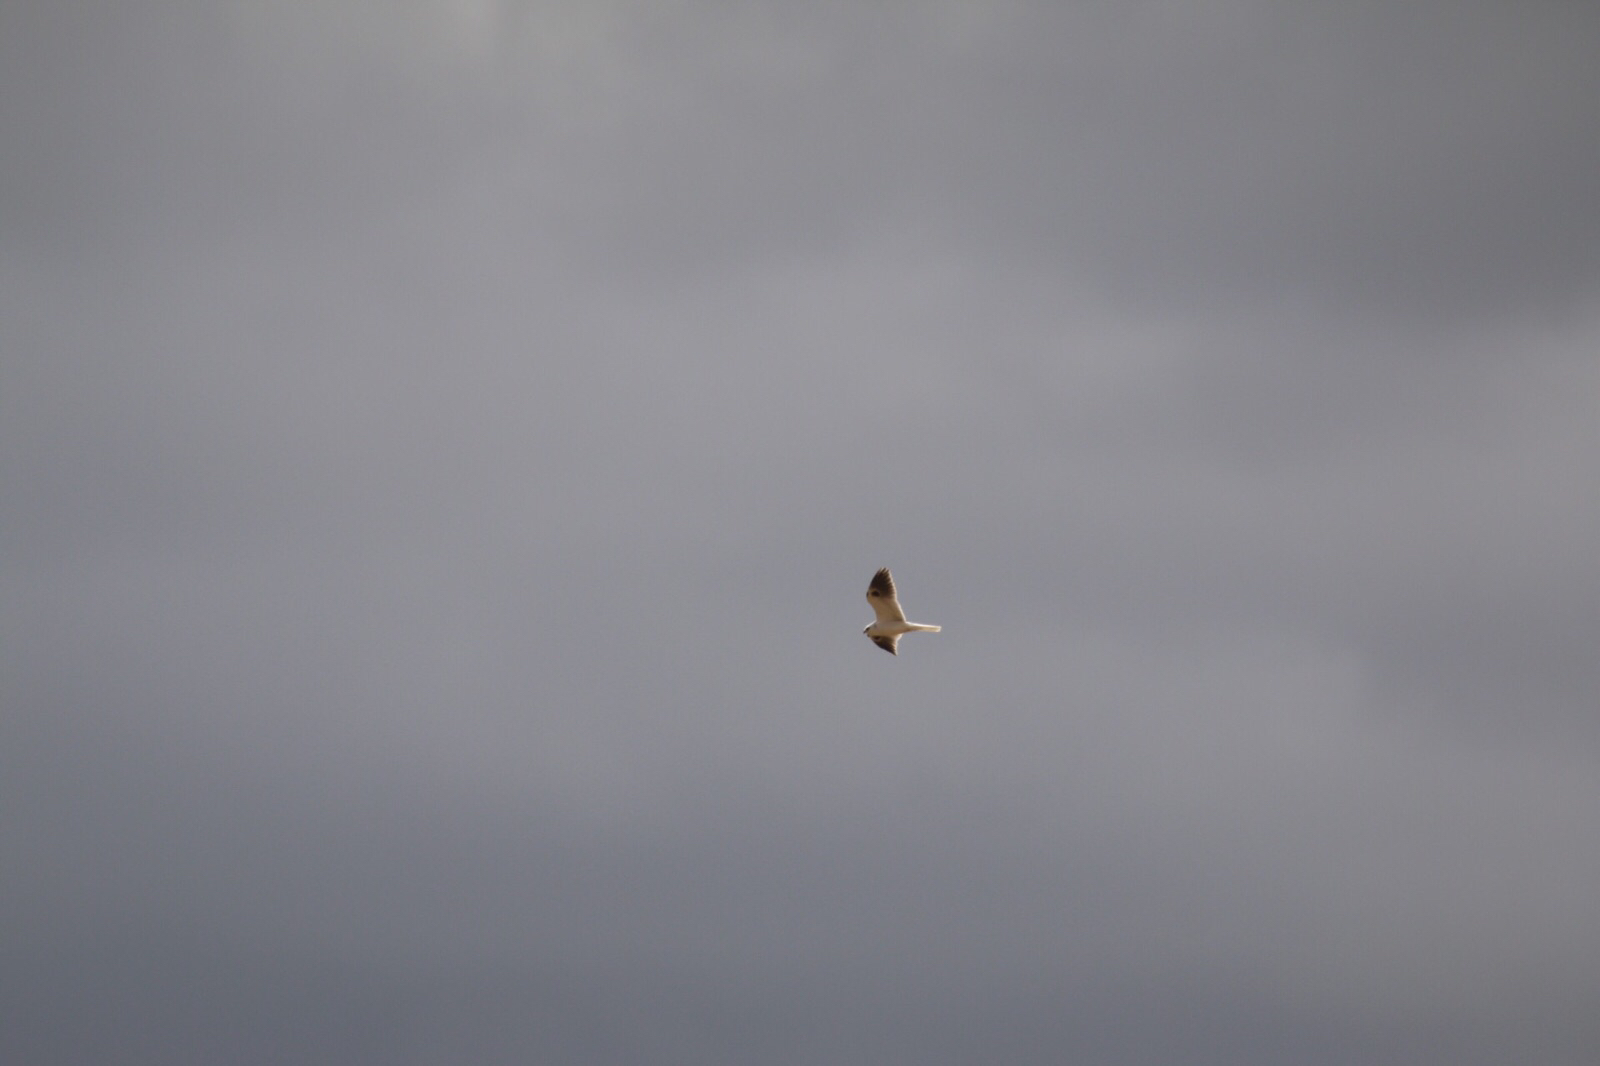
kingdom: Animalia
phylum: Chordata
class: Aves
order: Accipitriformes
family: Accipitridae
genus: Elanus
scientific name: Elanus leucurus
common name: White-tailed kite
